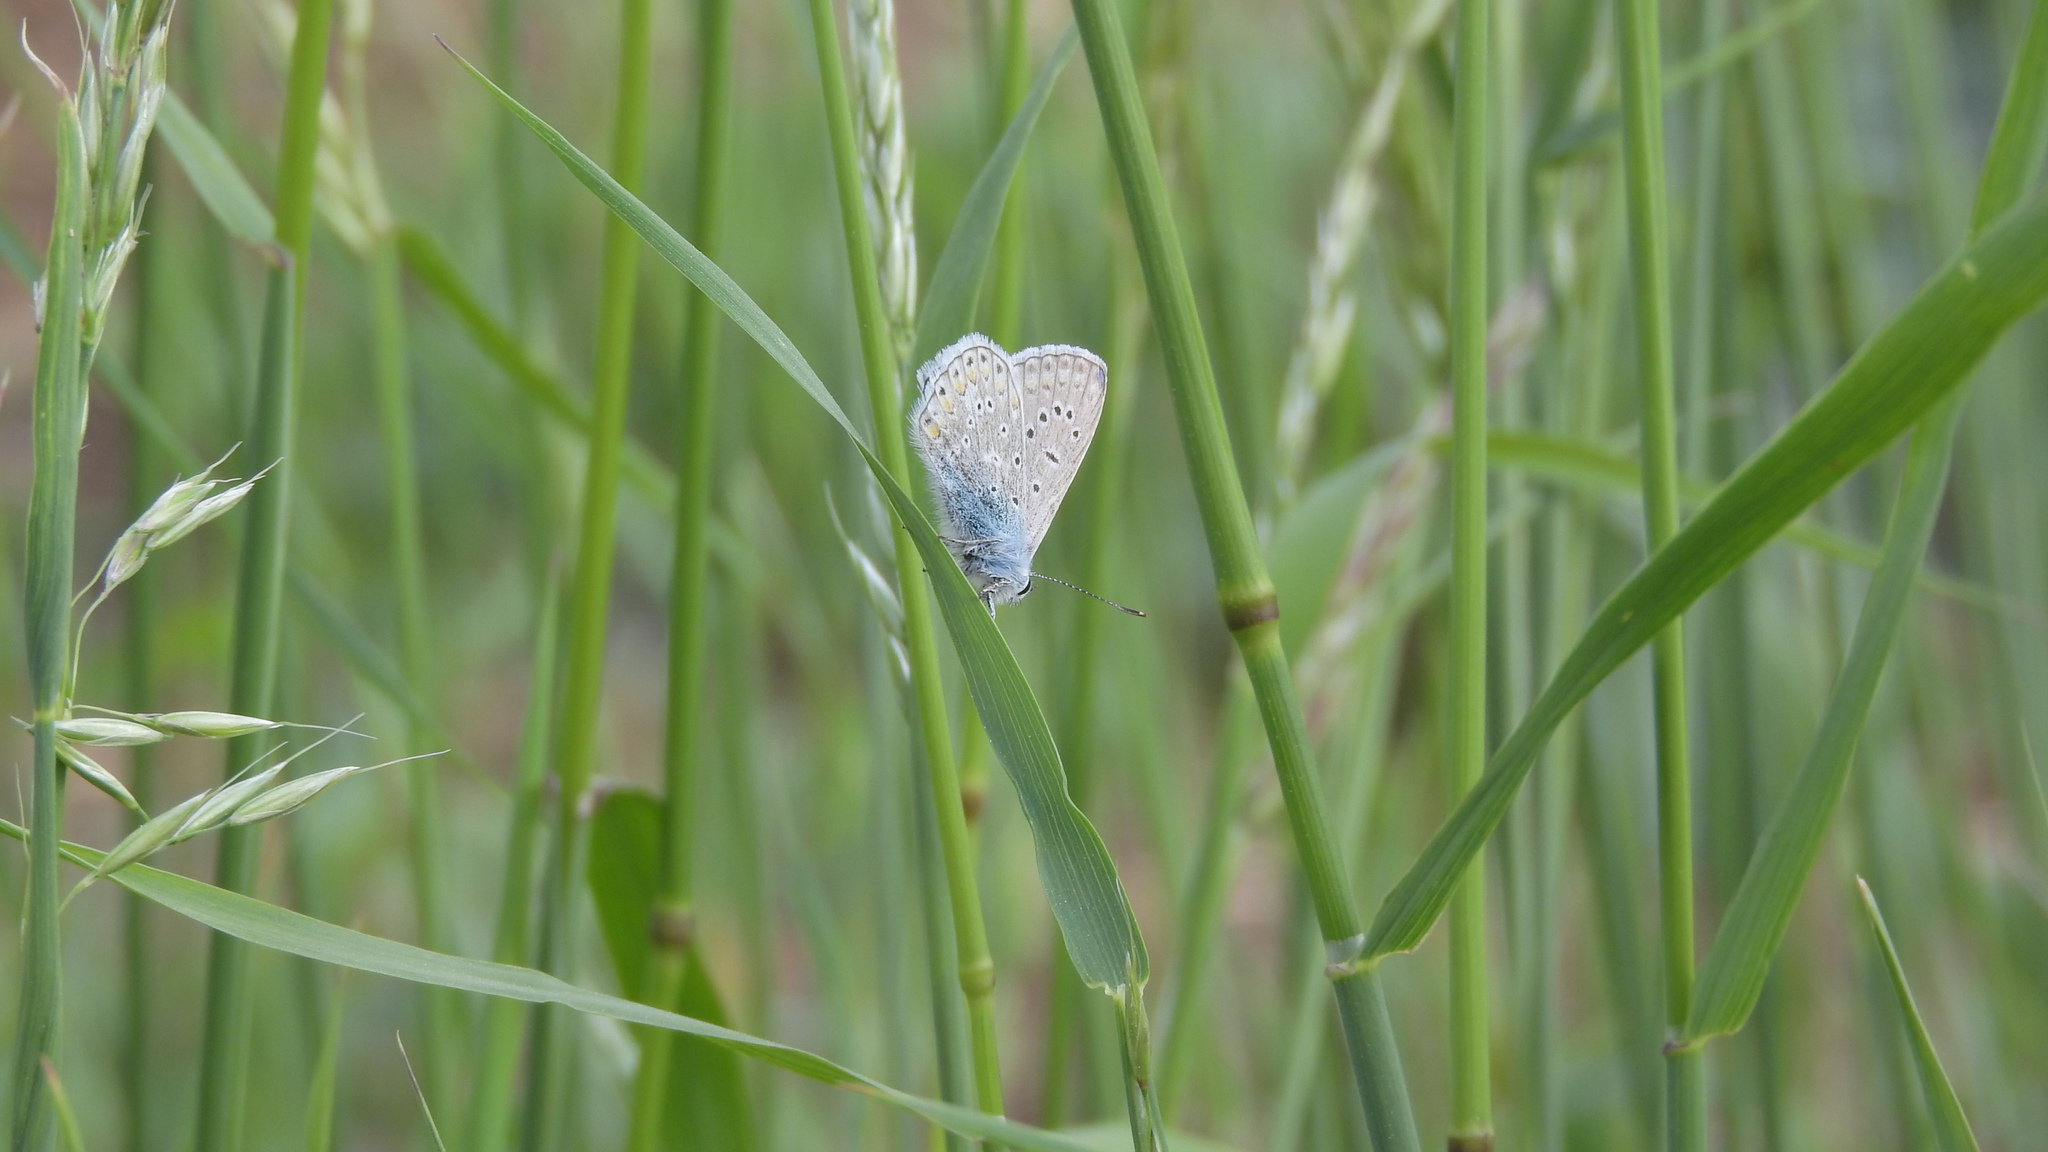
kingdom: Animalia
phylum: Arthropoda
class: Insecta
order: Lepidoptera
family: Lycaenidae
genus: Polyommatus
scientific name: Polyommatus icarus
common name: Common blue
